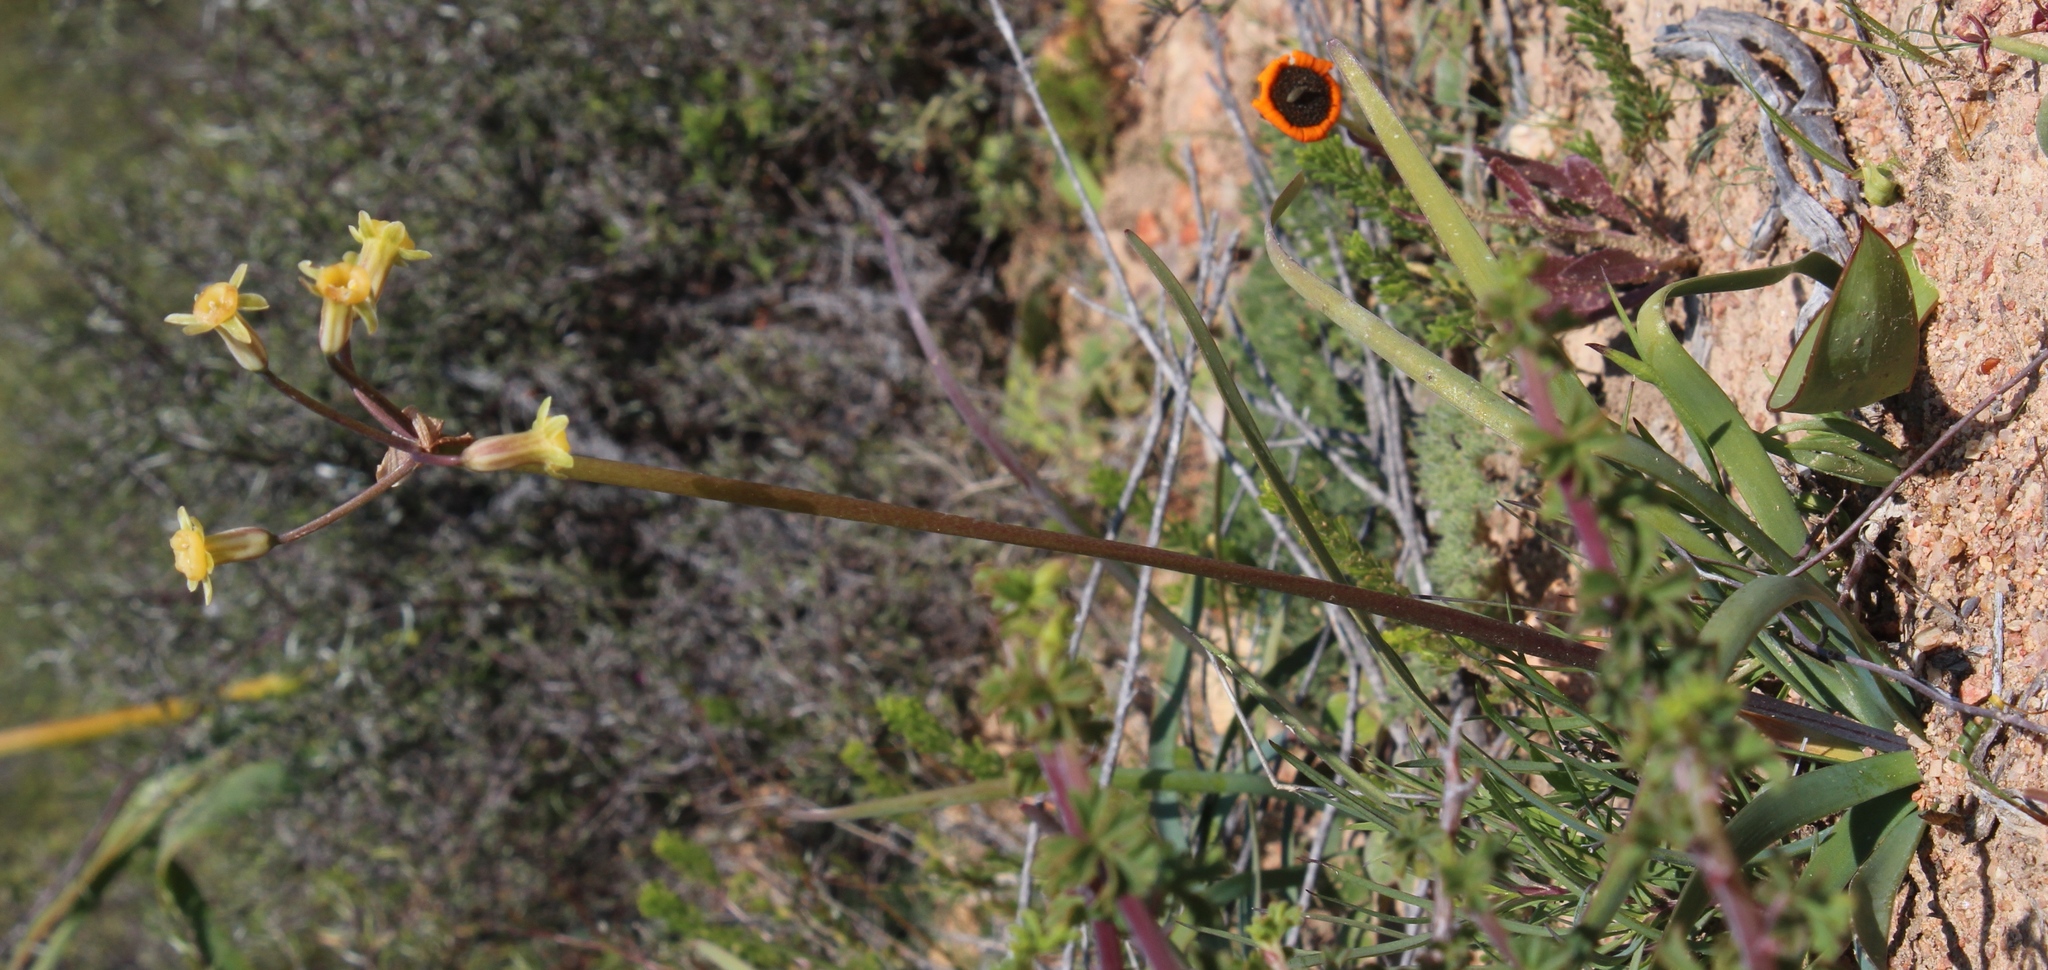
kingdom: Plantae
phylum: Tracheophyta
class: Liliopsida
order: Asparagales
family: Amaryllidaceae
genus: Tulbaghia
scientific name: Tulbaghia dregeana
